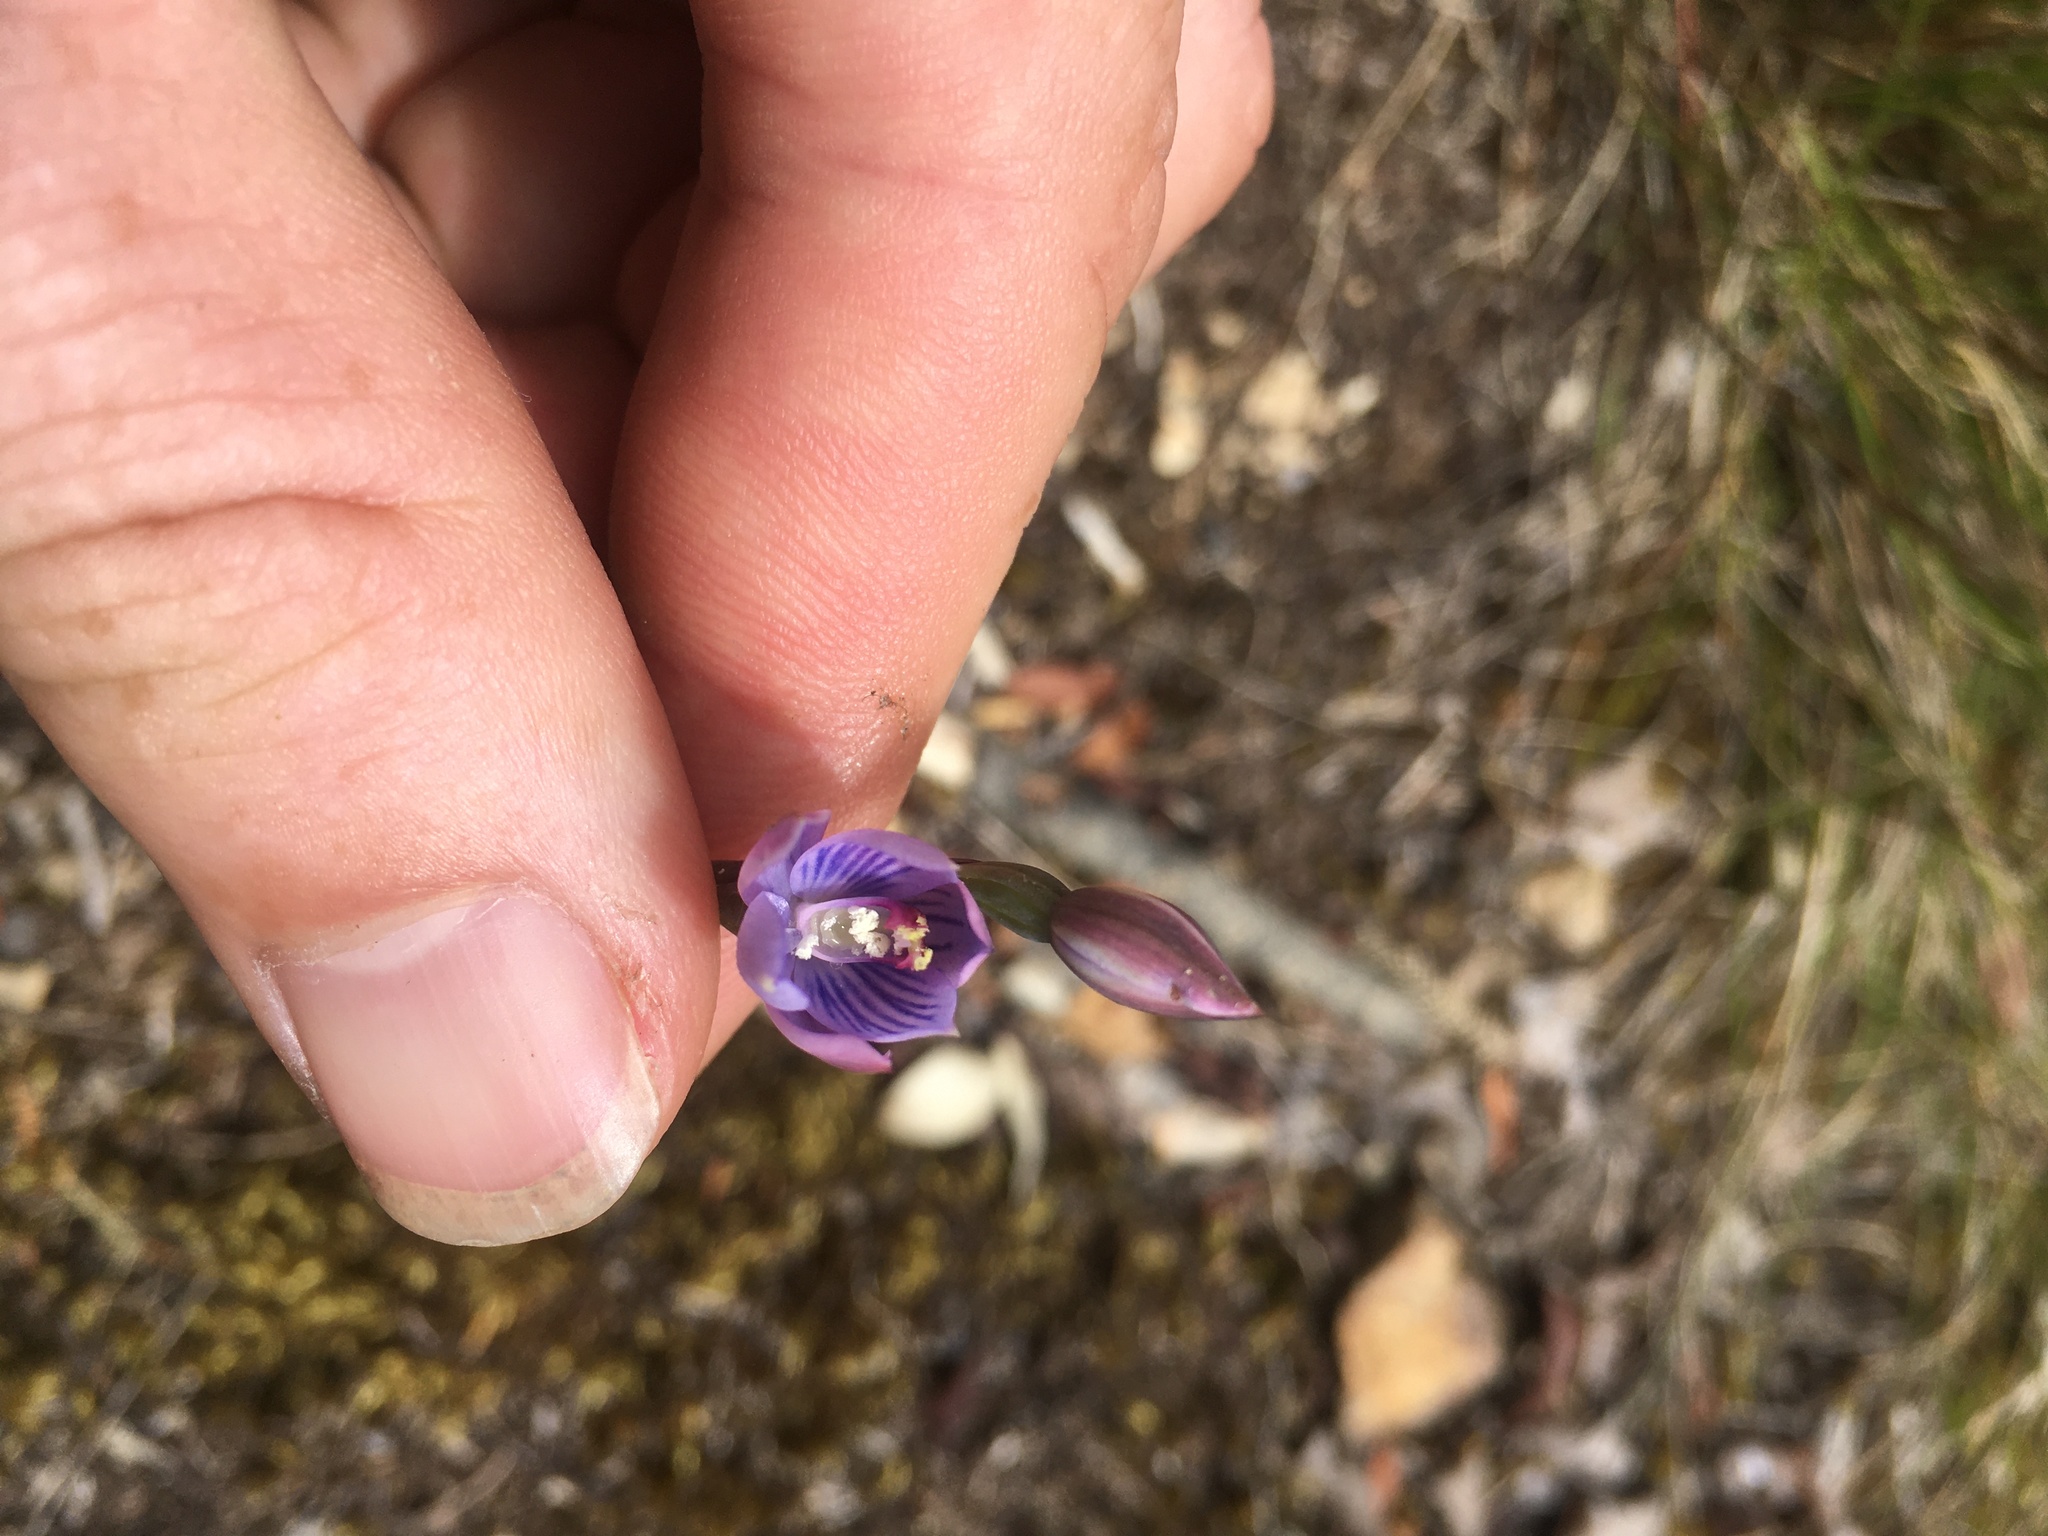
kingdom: Plantae
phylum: Tracheophyta
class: Liliopsida
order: Asparagales
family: Orchidaceae
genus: Thelymitra
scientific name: Thelymitra pulchella
